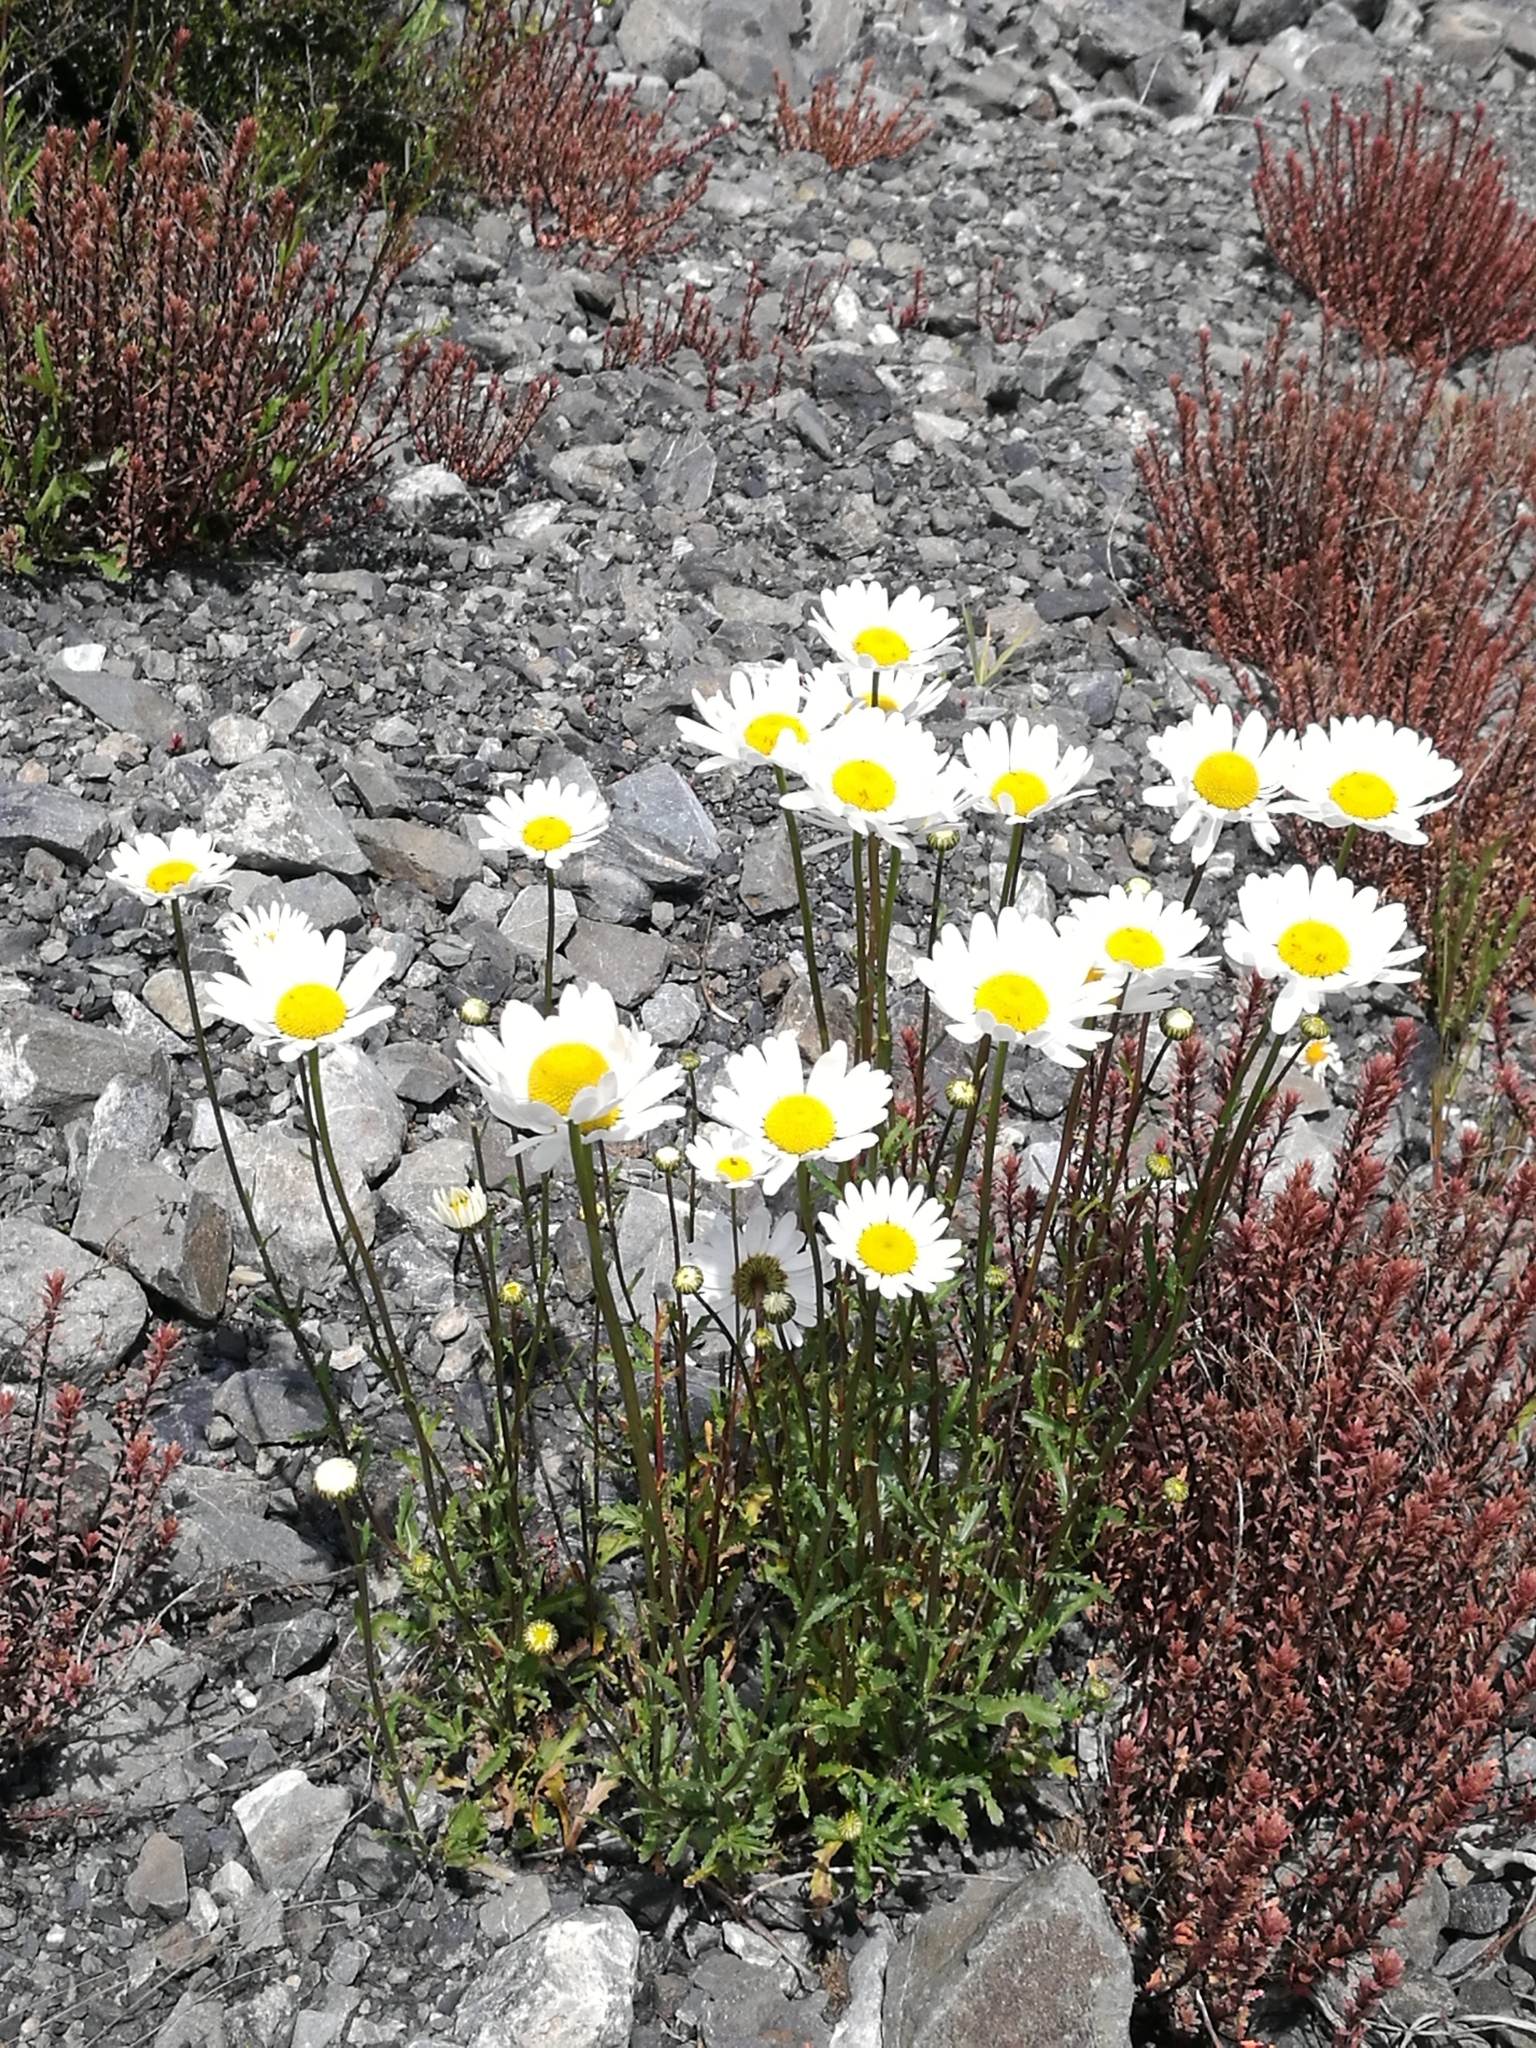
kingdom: Plantae
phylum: Tracheophyta
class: Magnoliopsida
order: Asterales
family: Asteraceae
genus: Leucanthemum
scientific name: Leucanthemum vulgare
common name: Oxeye daisy
